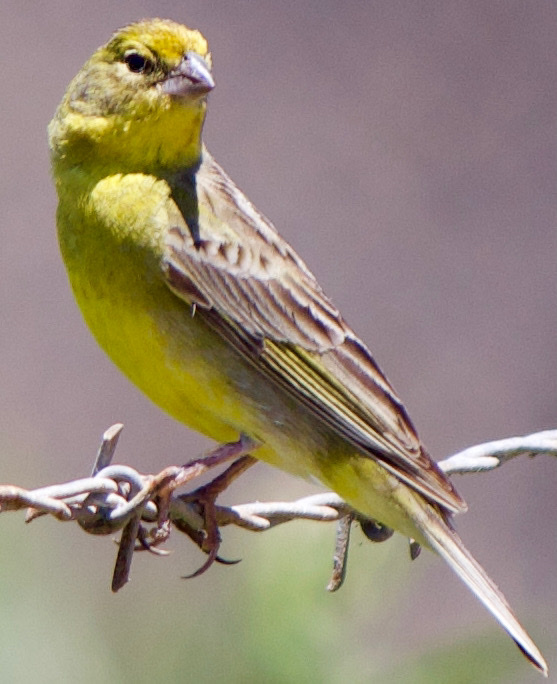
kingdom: Animalia
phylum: Chordata
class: Aves
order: Passeriformes
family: Thraupidae
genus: Sicalis
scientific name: Sicalis luteola
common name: Grassland yellow-finch
